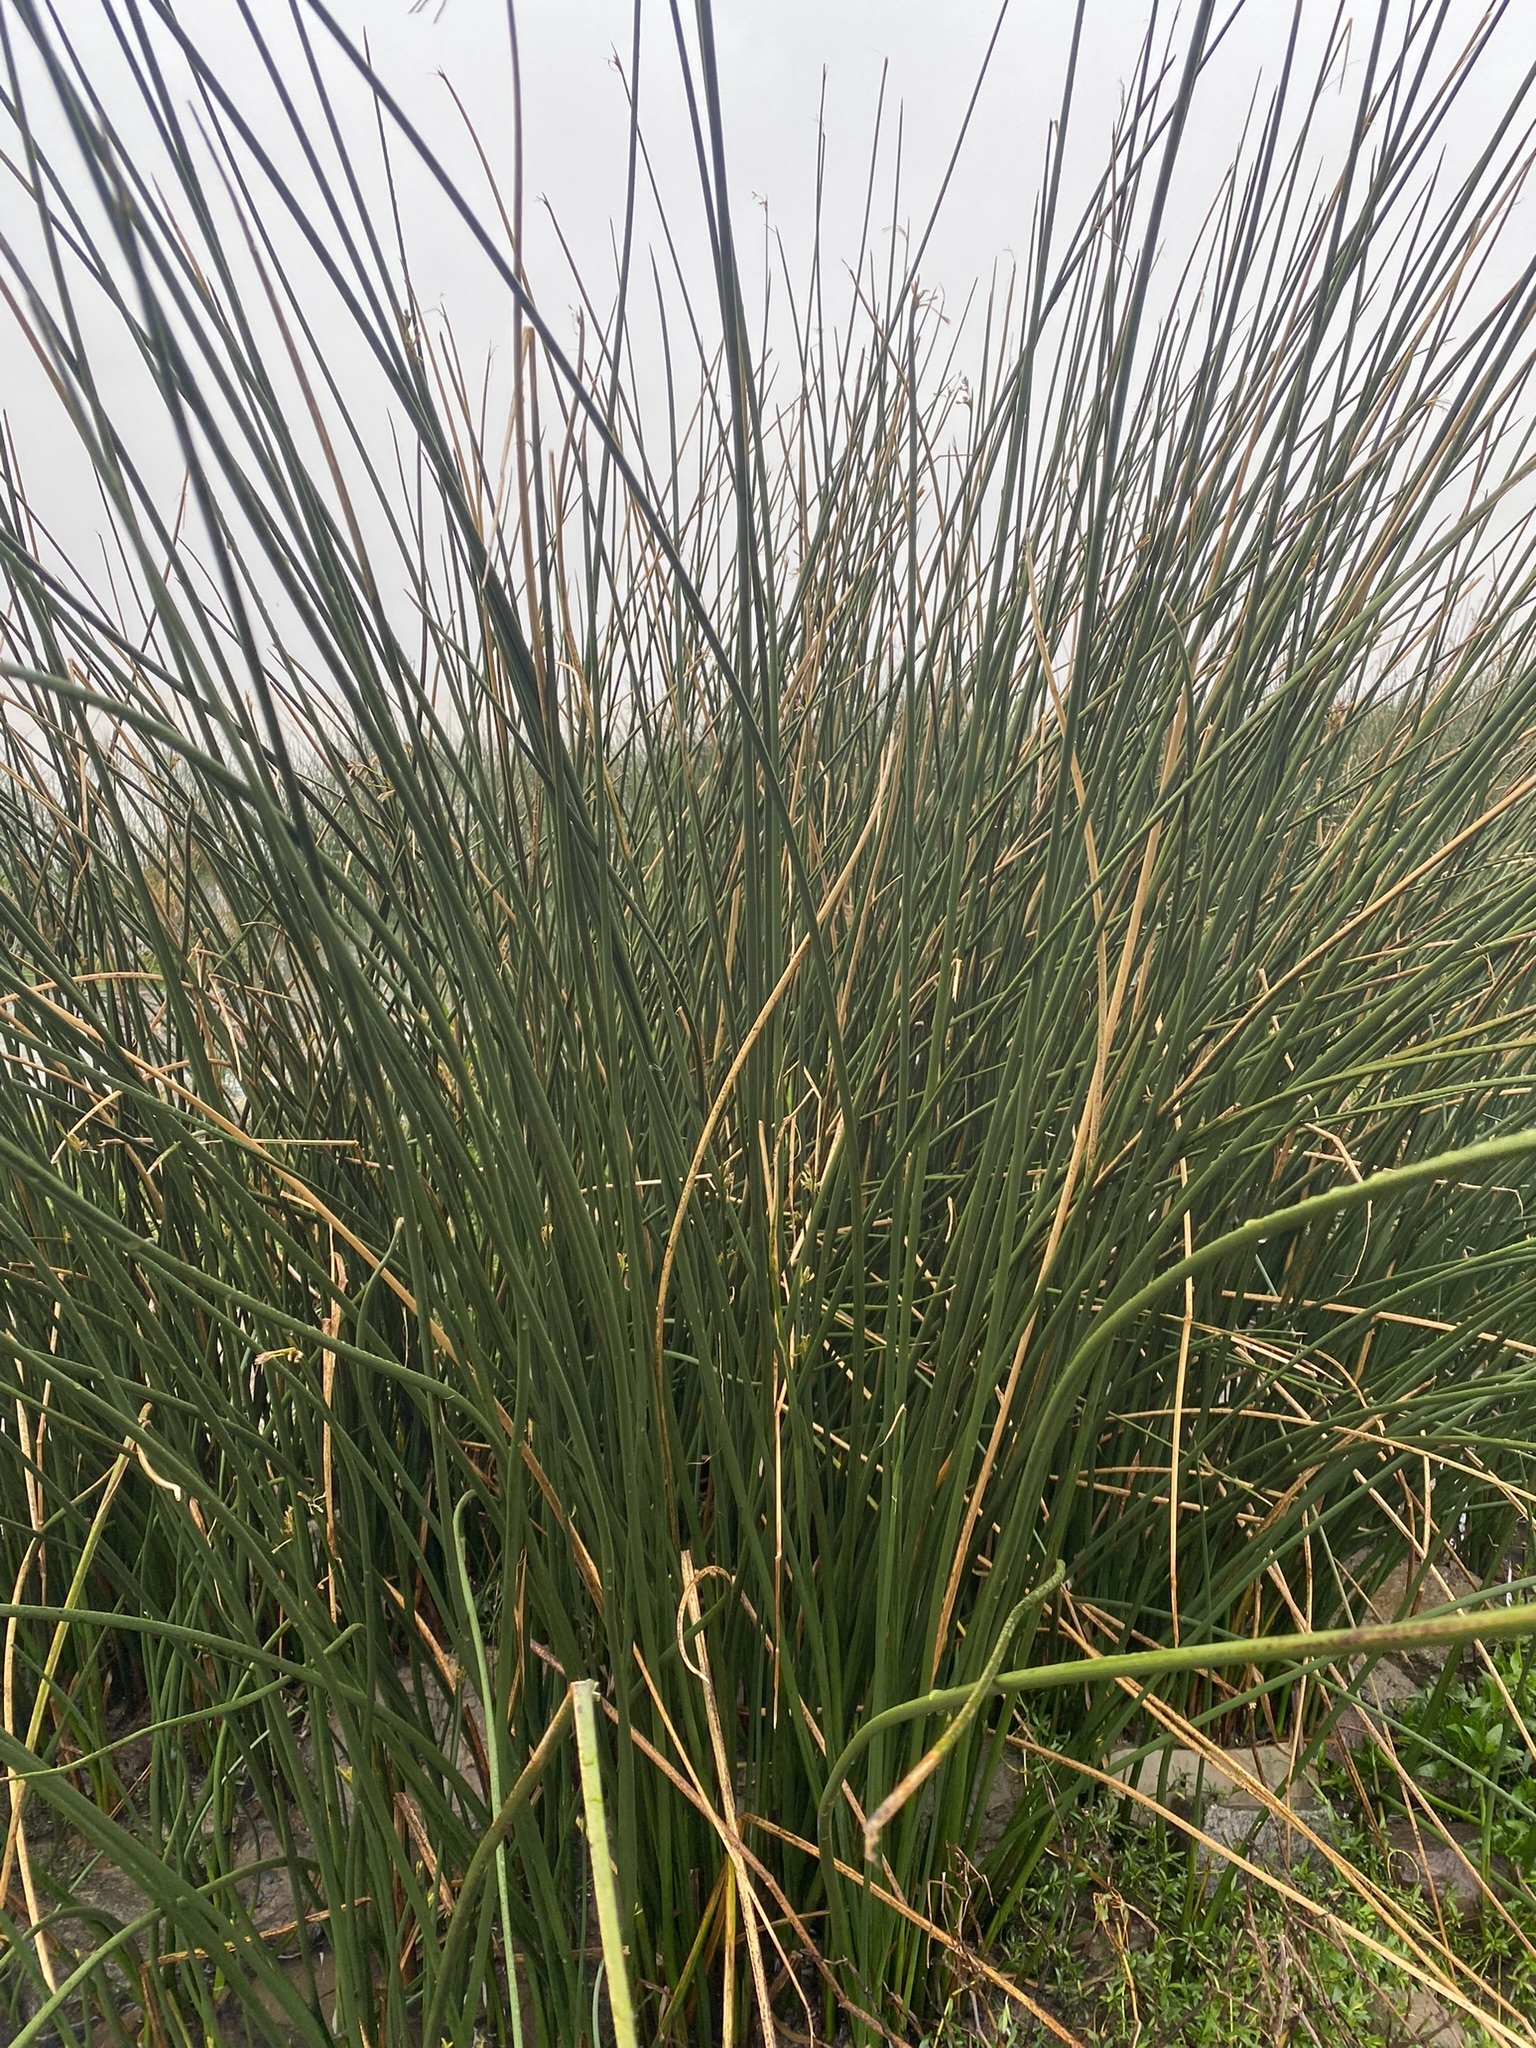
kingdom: Plantae
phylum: Tracheophyta
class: Liliopsida
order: Poales
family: Cyperaceae
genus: Schoenoplectus
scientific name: Schoenoplectus californicus
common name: California bulrush
